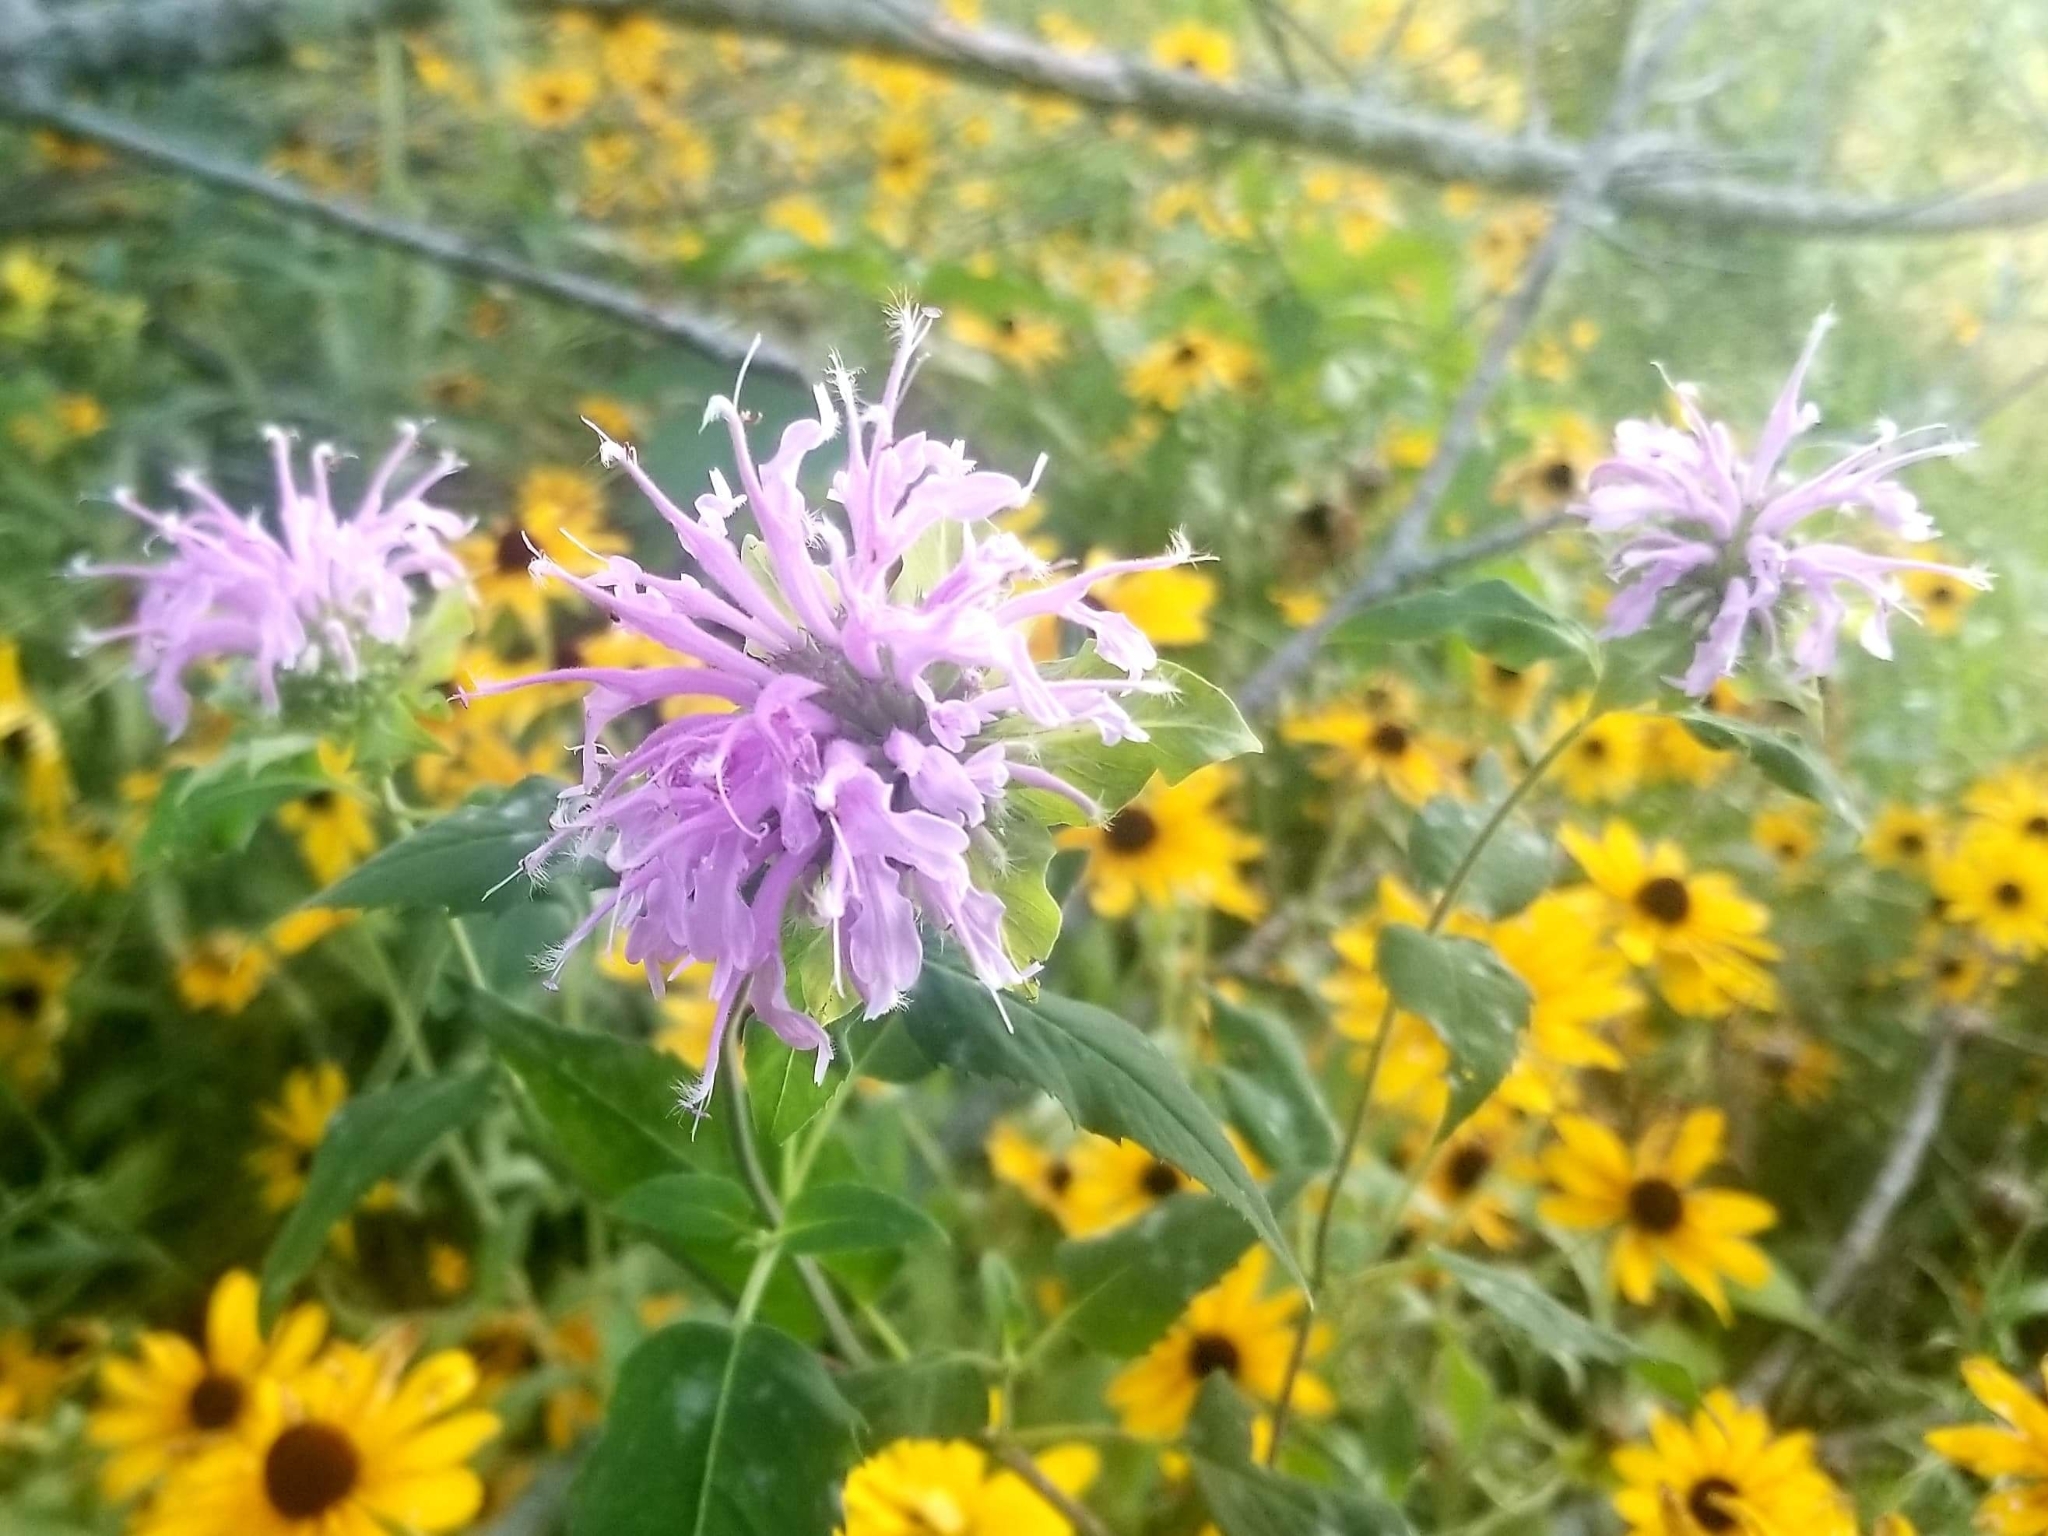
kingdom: Plantae
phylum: Tracheophyta
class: Magnoliopsida
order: Lamiales
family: Lamiaceae
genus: Monarda
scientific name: Monarda fistulosa
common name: Purple beebalm
